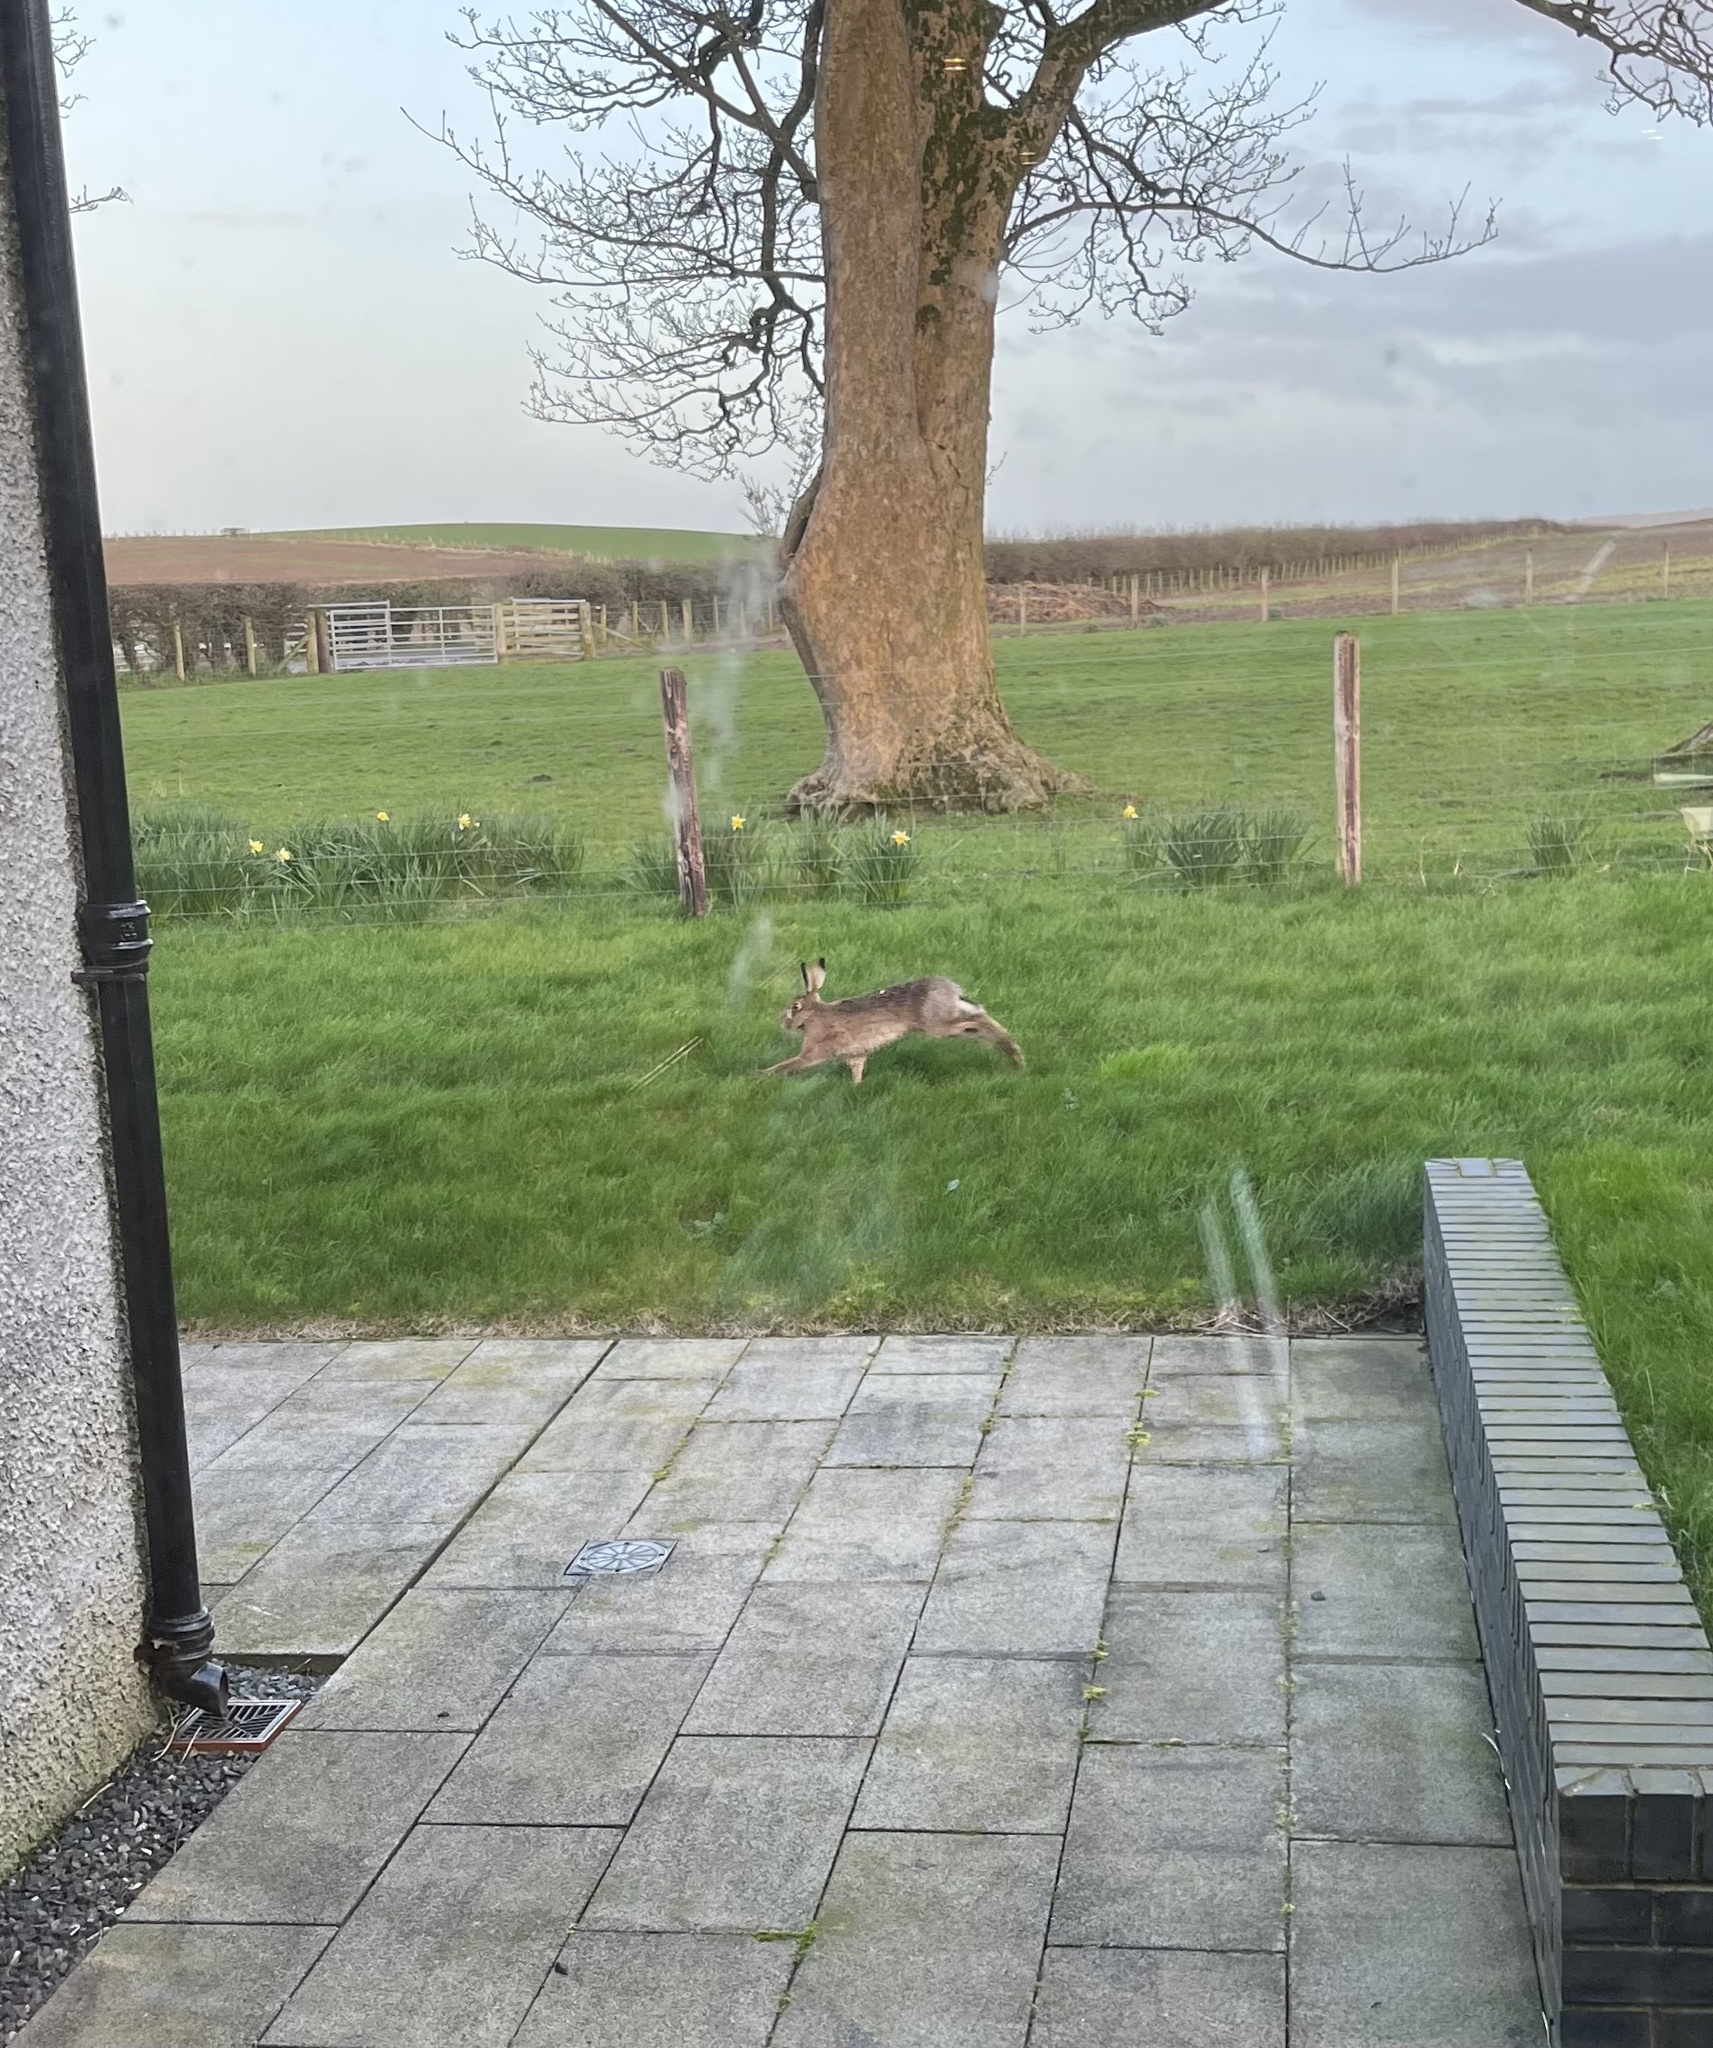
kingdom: Animalia
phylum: Chordata
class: Mammalia
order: Lagomorpha
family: Leporidae
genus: Lepus
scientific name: Lepus europaeus
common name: European hare
